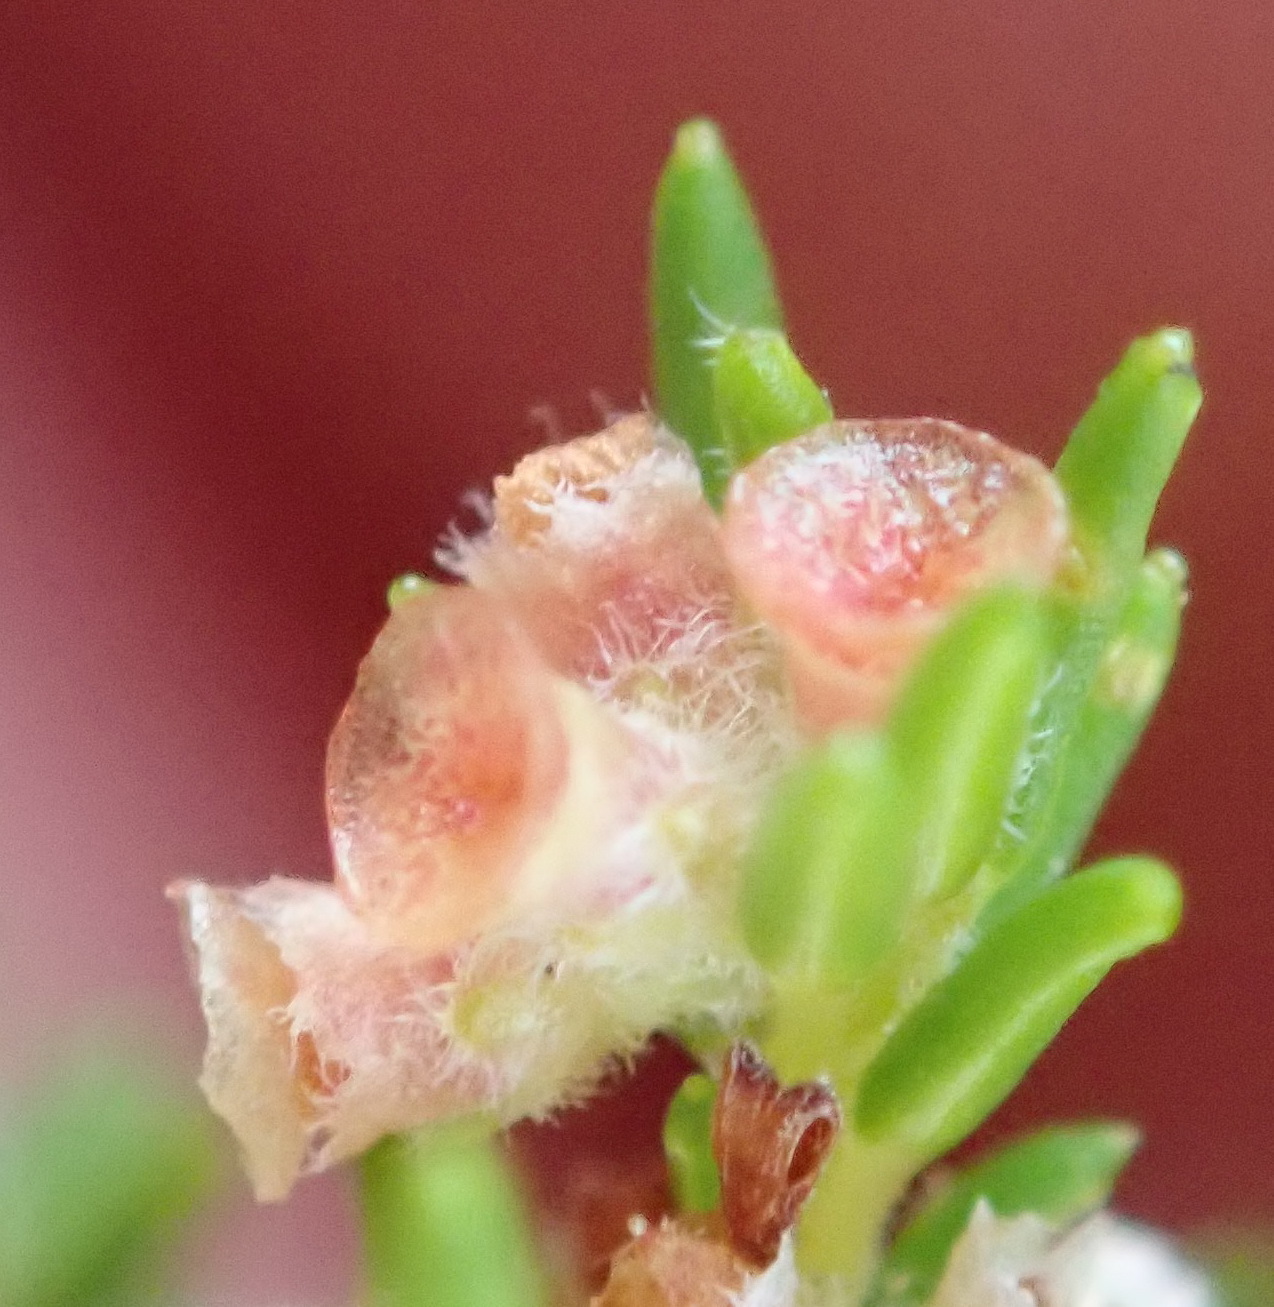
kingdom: Plantae
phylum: Tracheophyta
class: Magnoliopsida
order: Ericales
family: Ericaceae
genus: Erica
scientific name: Erica muscosa
